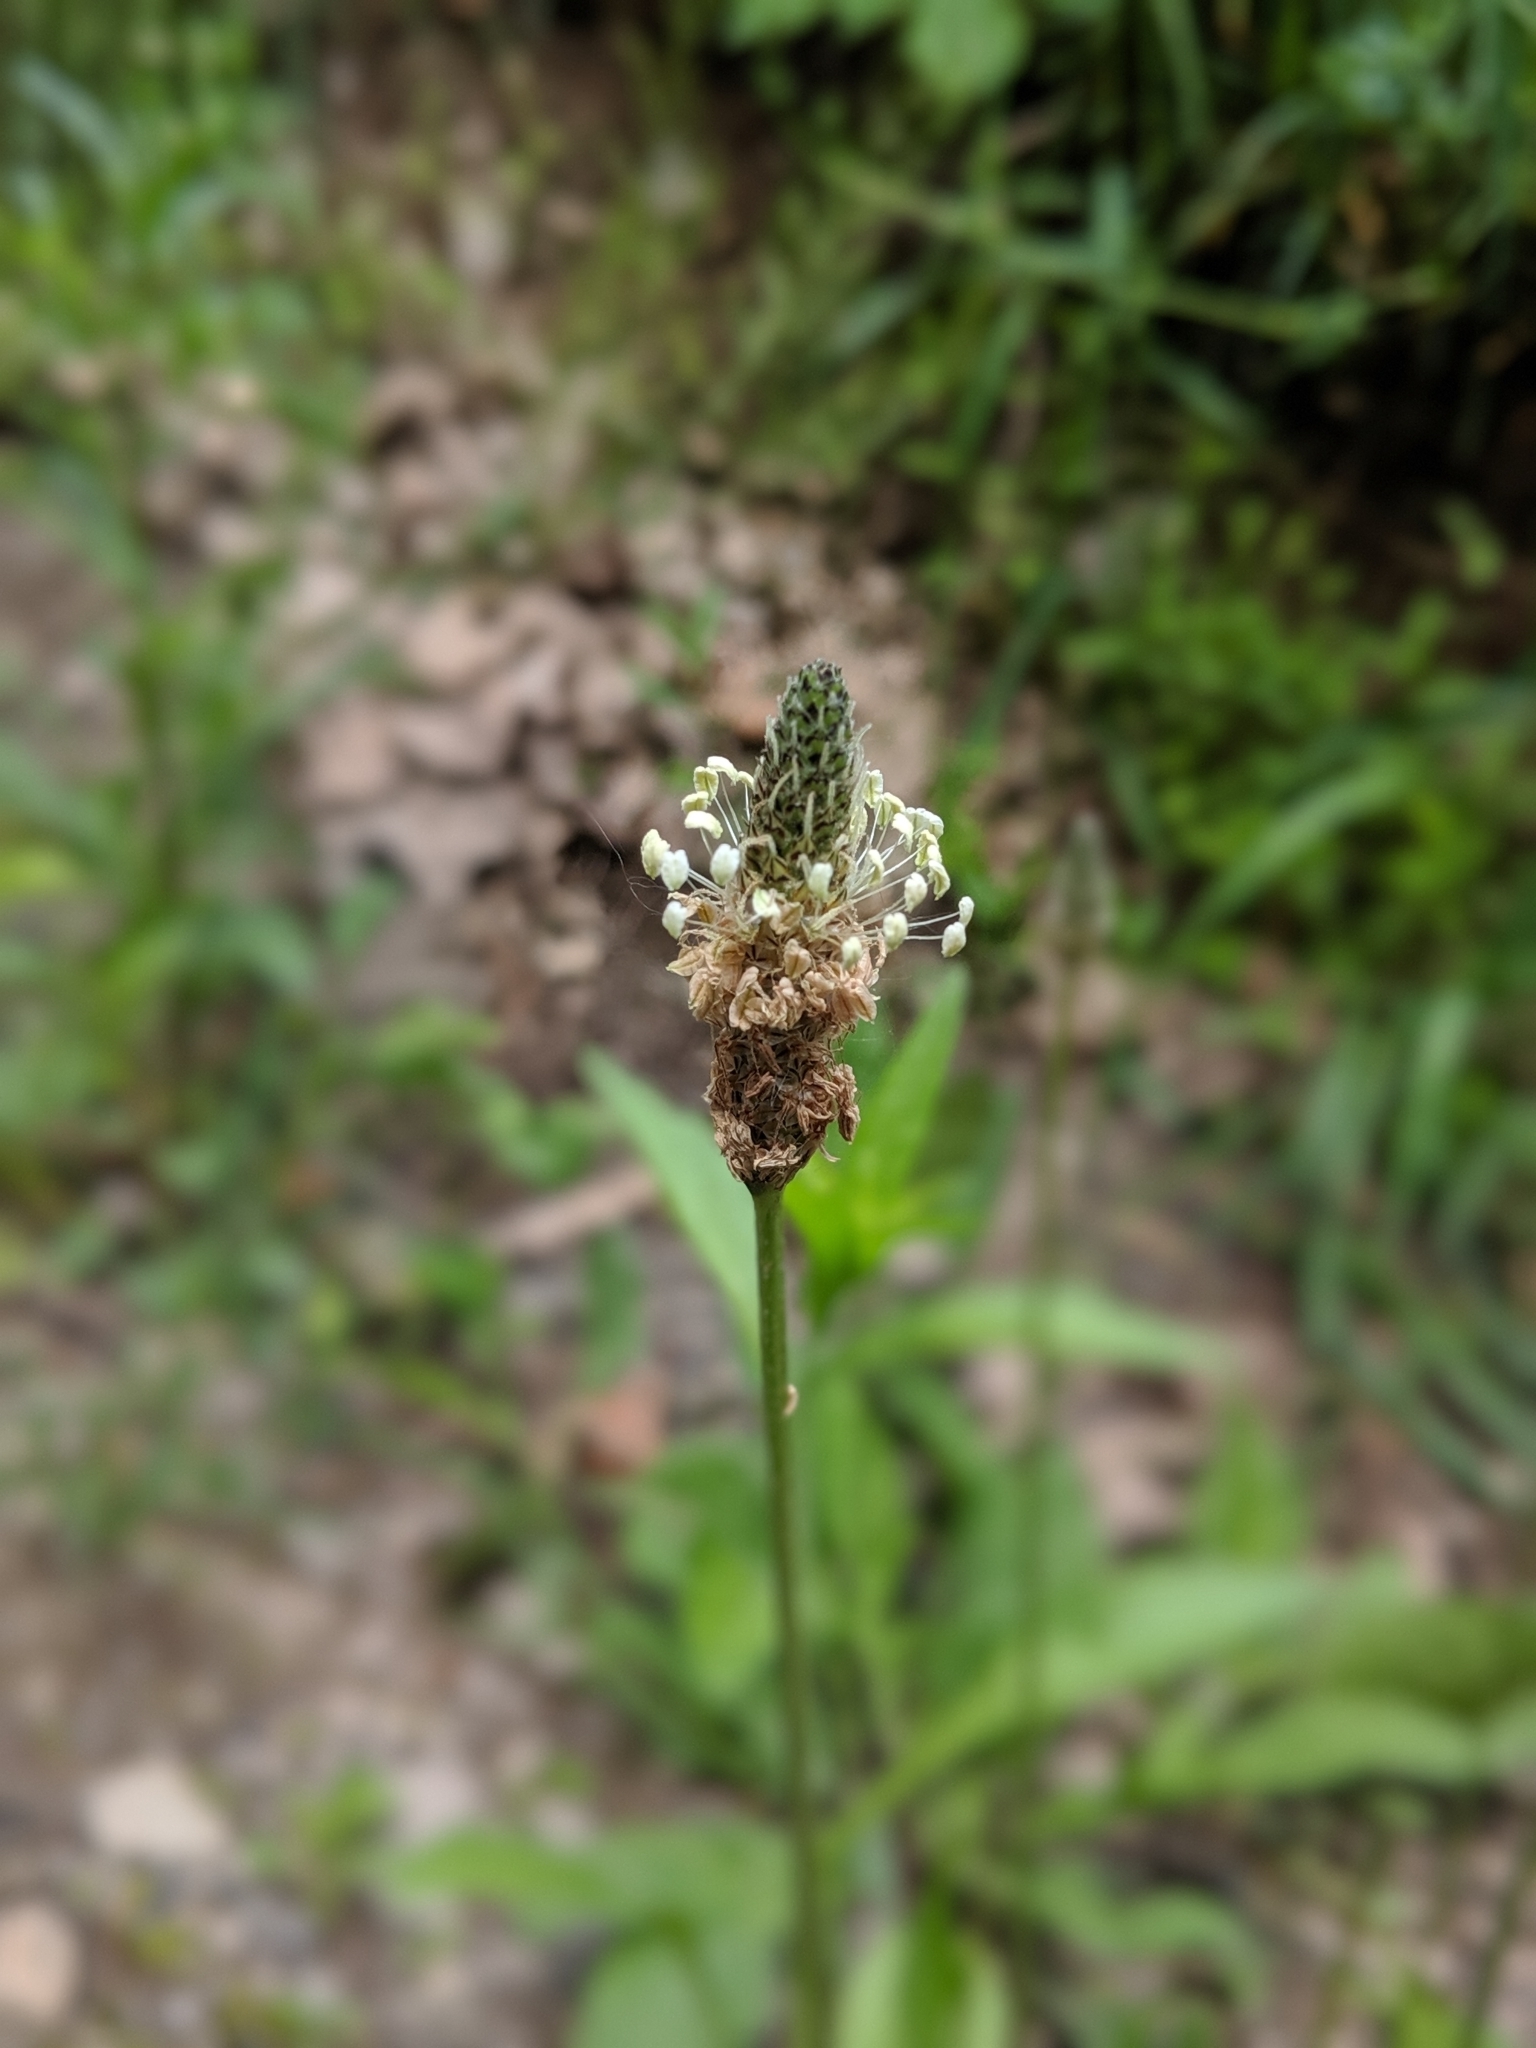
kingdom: Plantae
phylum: Tracheophyta
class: Magnoliopsida
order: Lamiales
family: Plantaginaceae
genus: Plantago
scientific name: Plantago lanceolata
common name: Ribwort plantain
